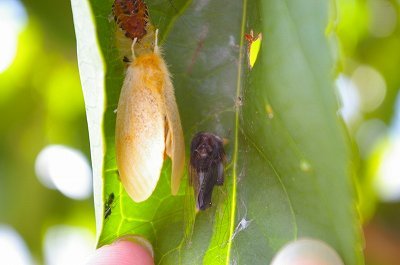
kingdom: Animalia
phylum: Arthropoda
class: Insecta
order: Lepidoptera
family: Erebidae
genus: Perina
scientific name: Perina nuda
